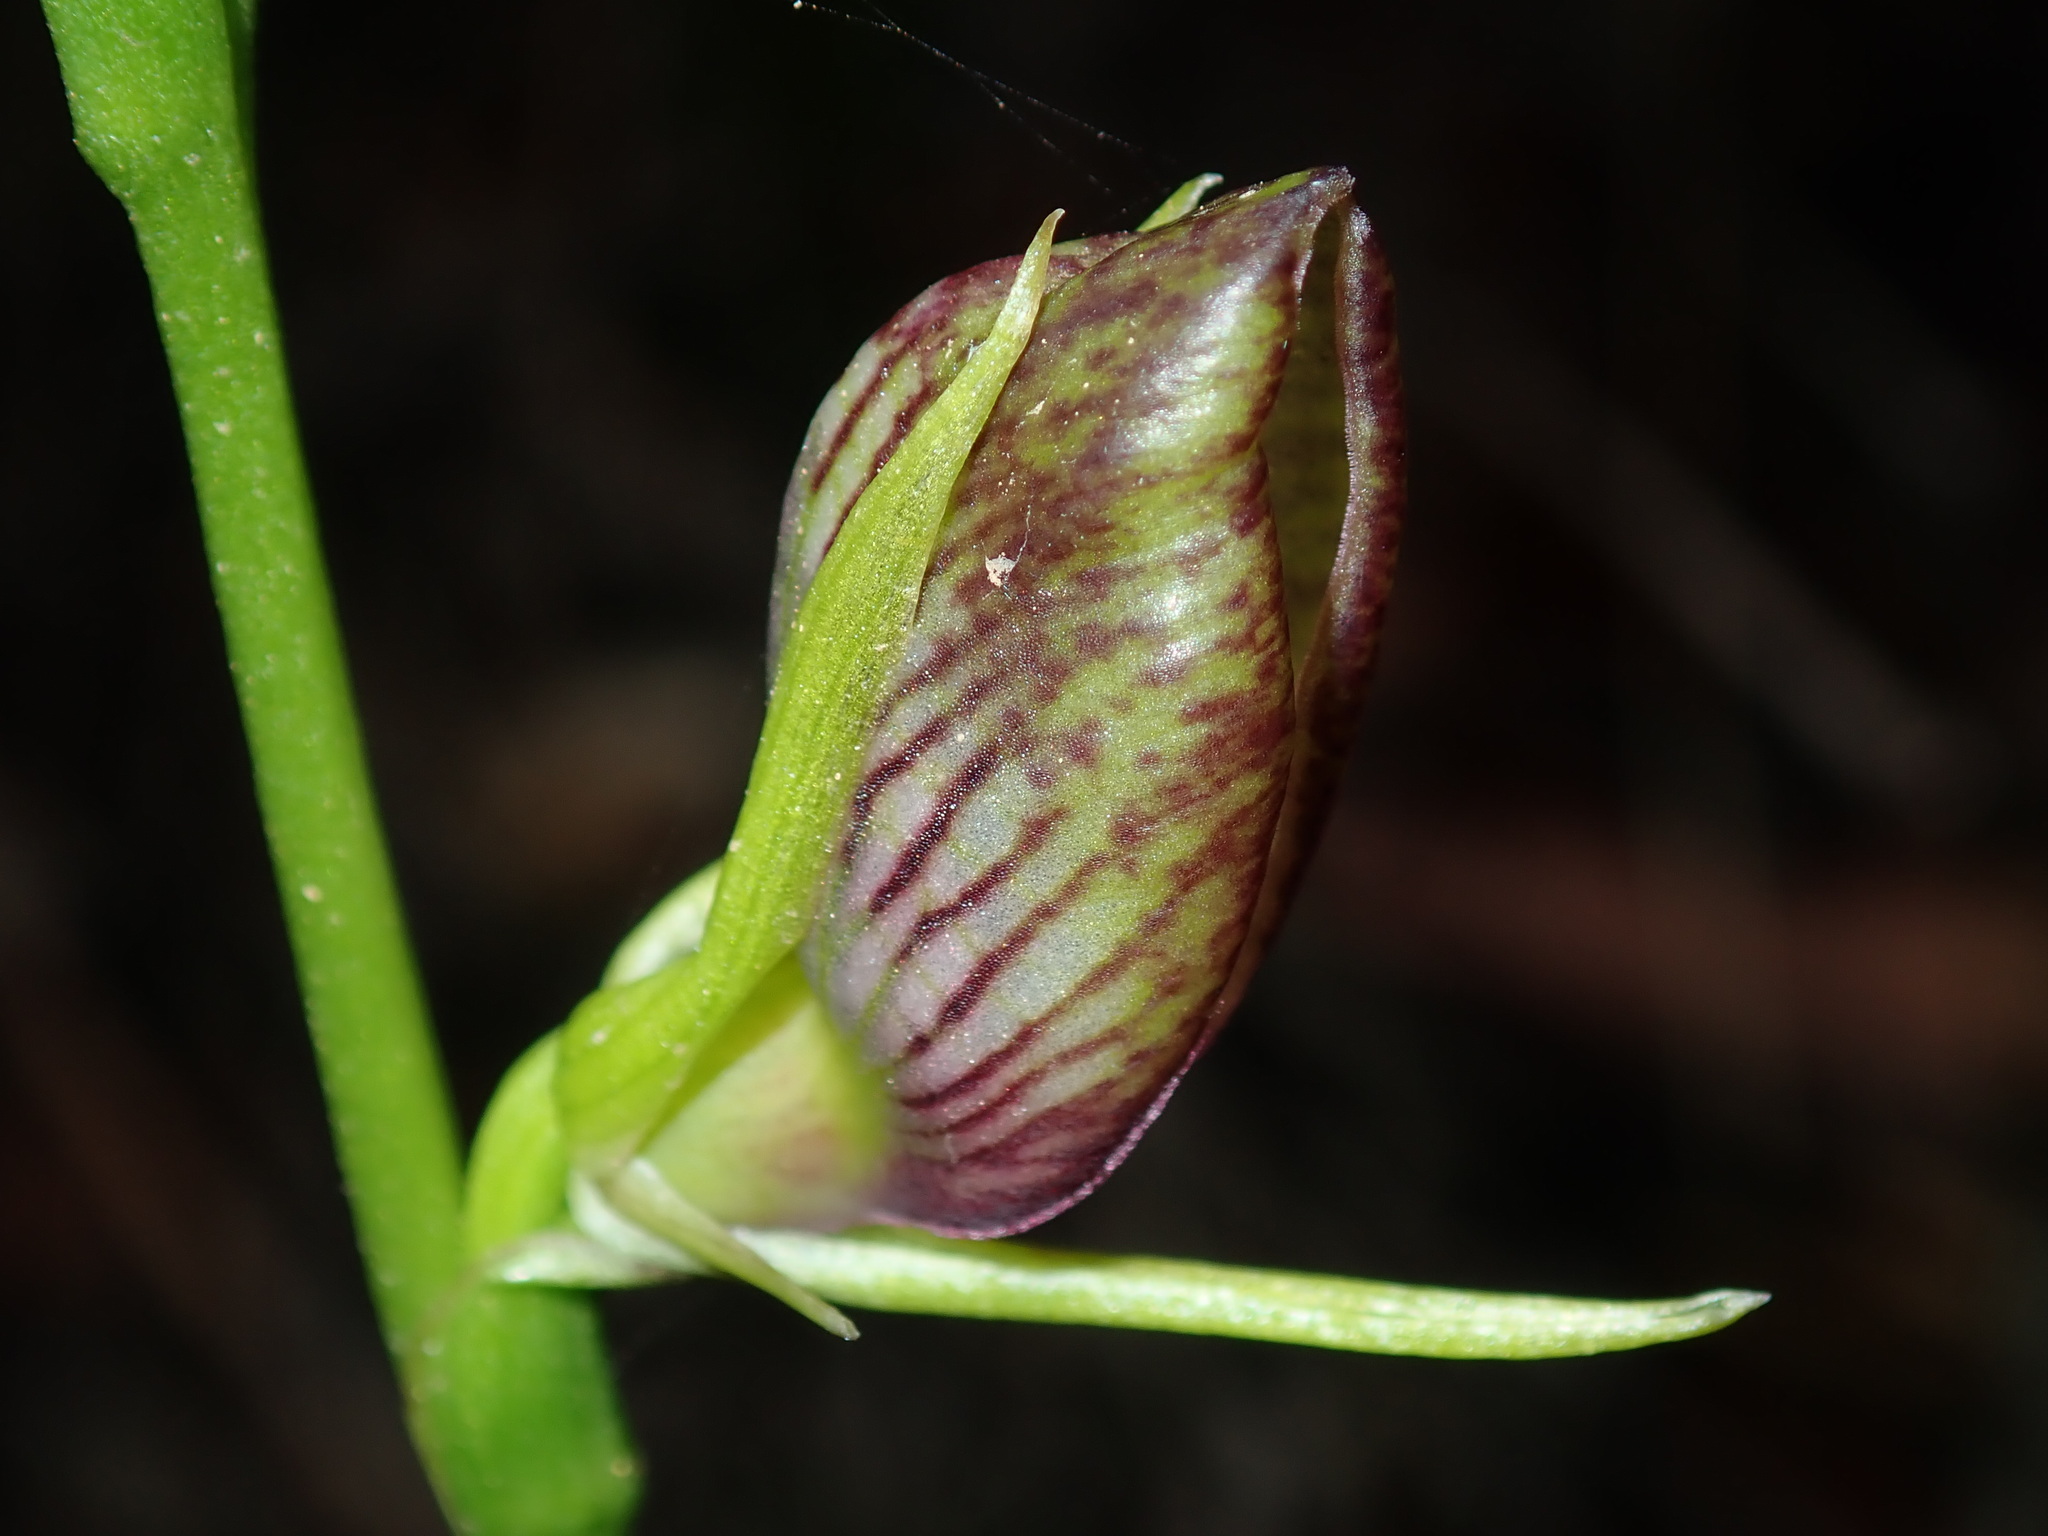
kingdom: Plantae
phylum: Tracheophyta
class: Liliopsida
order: Asparagales
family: Orchidaceae
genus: Cryptostylis
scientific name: Cryptostylis erecta
